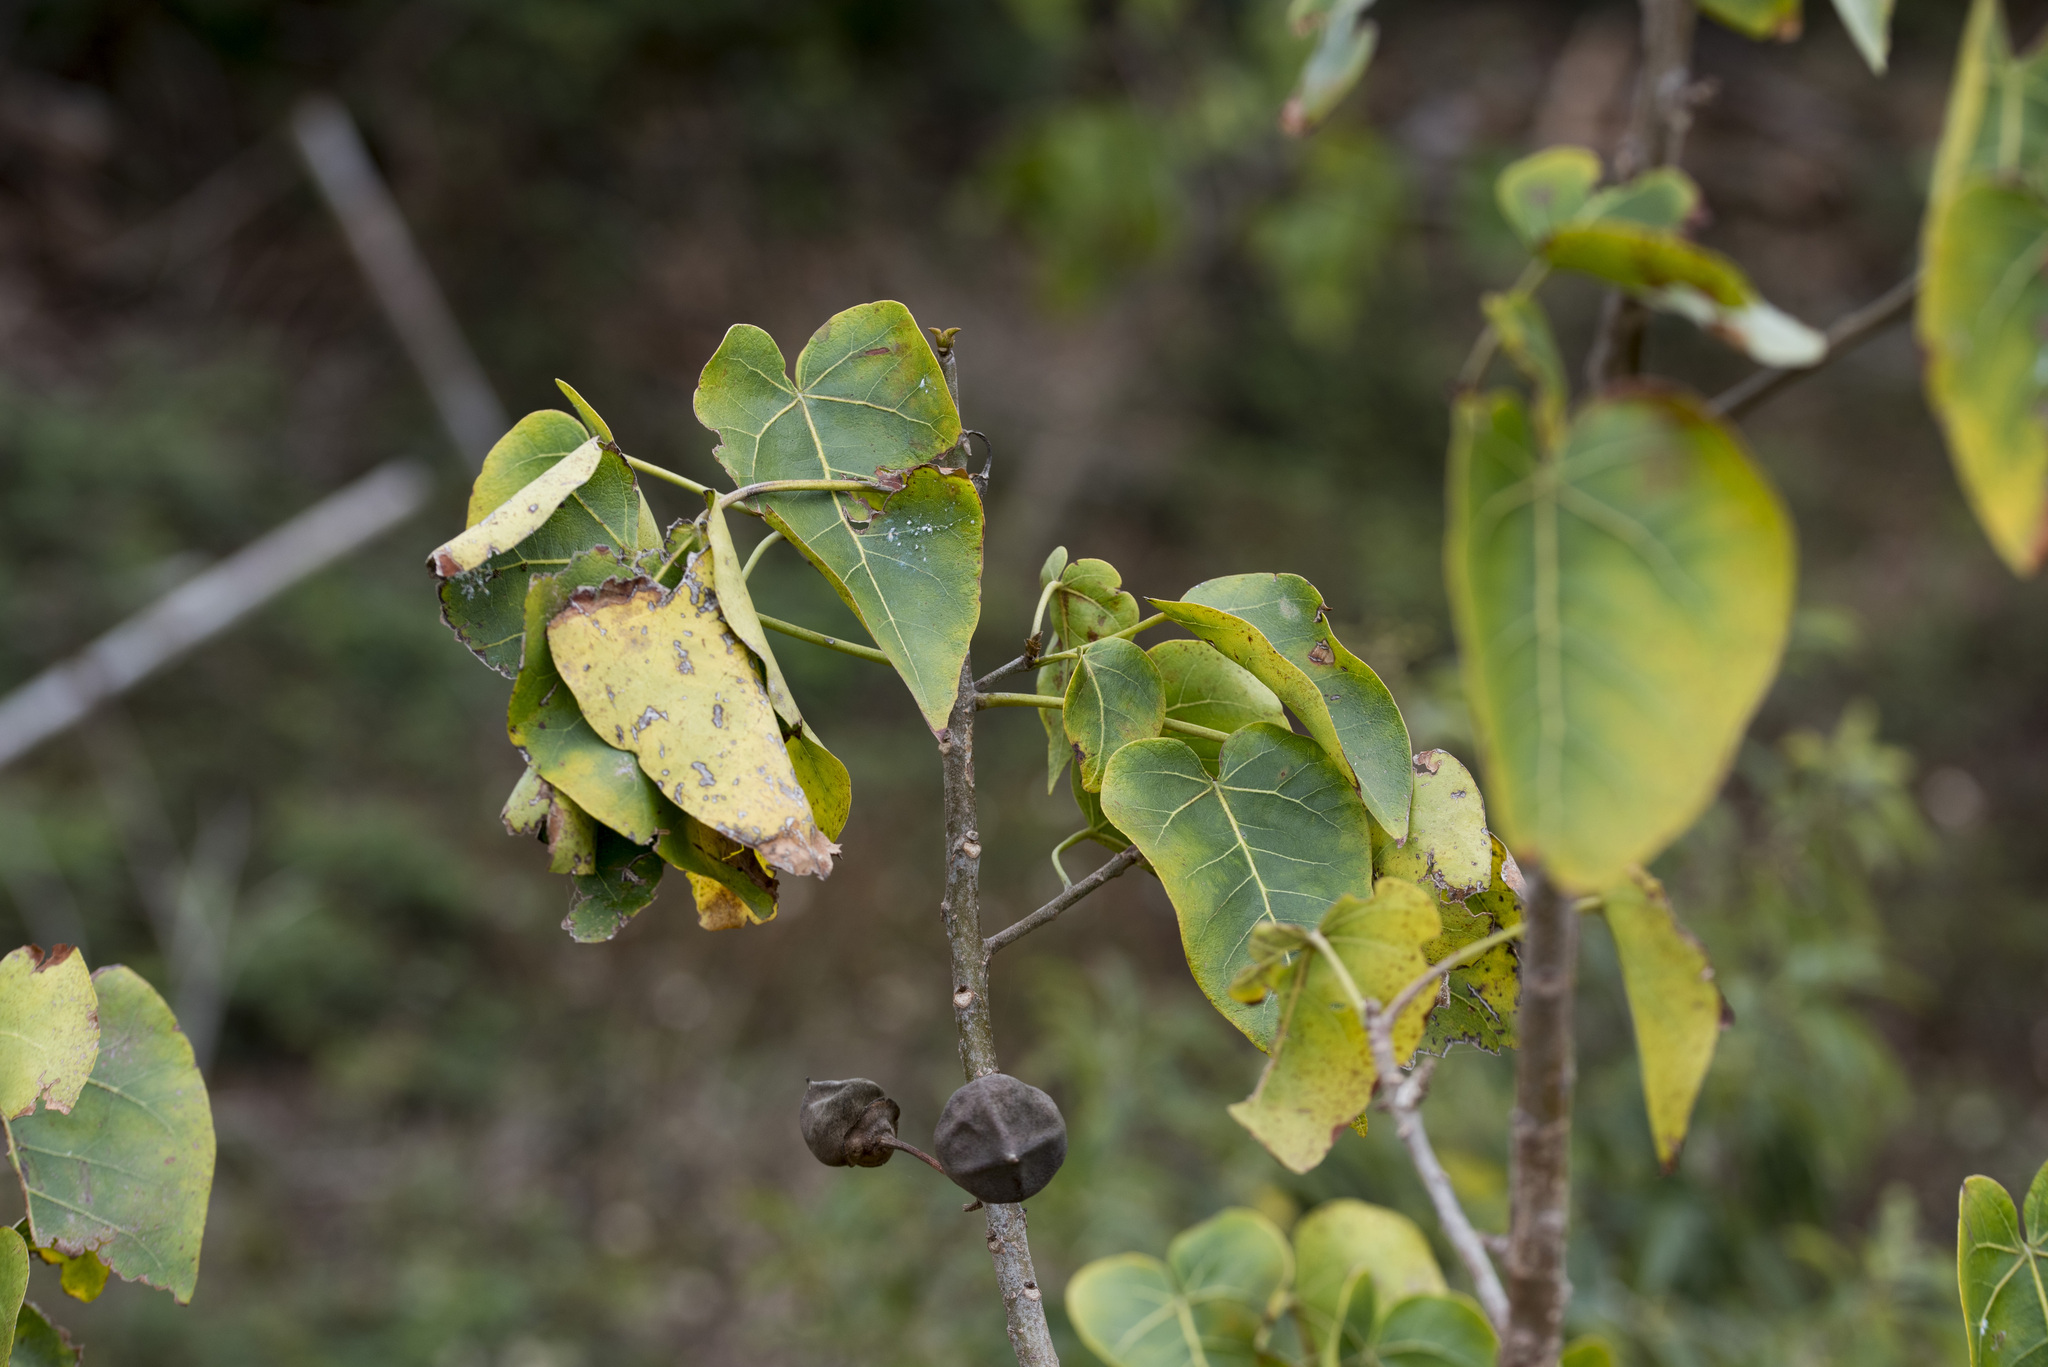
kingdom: Plantae
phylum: Tracheophyta
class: Magnoliopsida
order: Malvales
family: Malvaceae
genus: Thespesia
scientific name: Thespesia populnea
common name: Seaside mahoe
